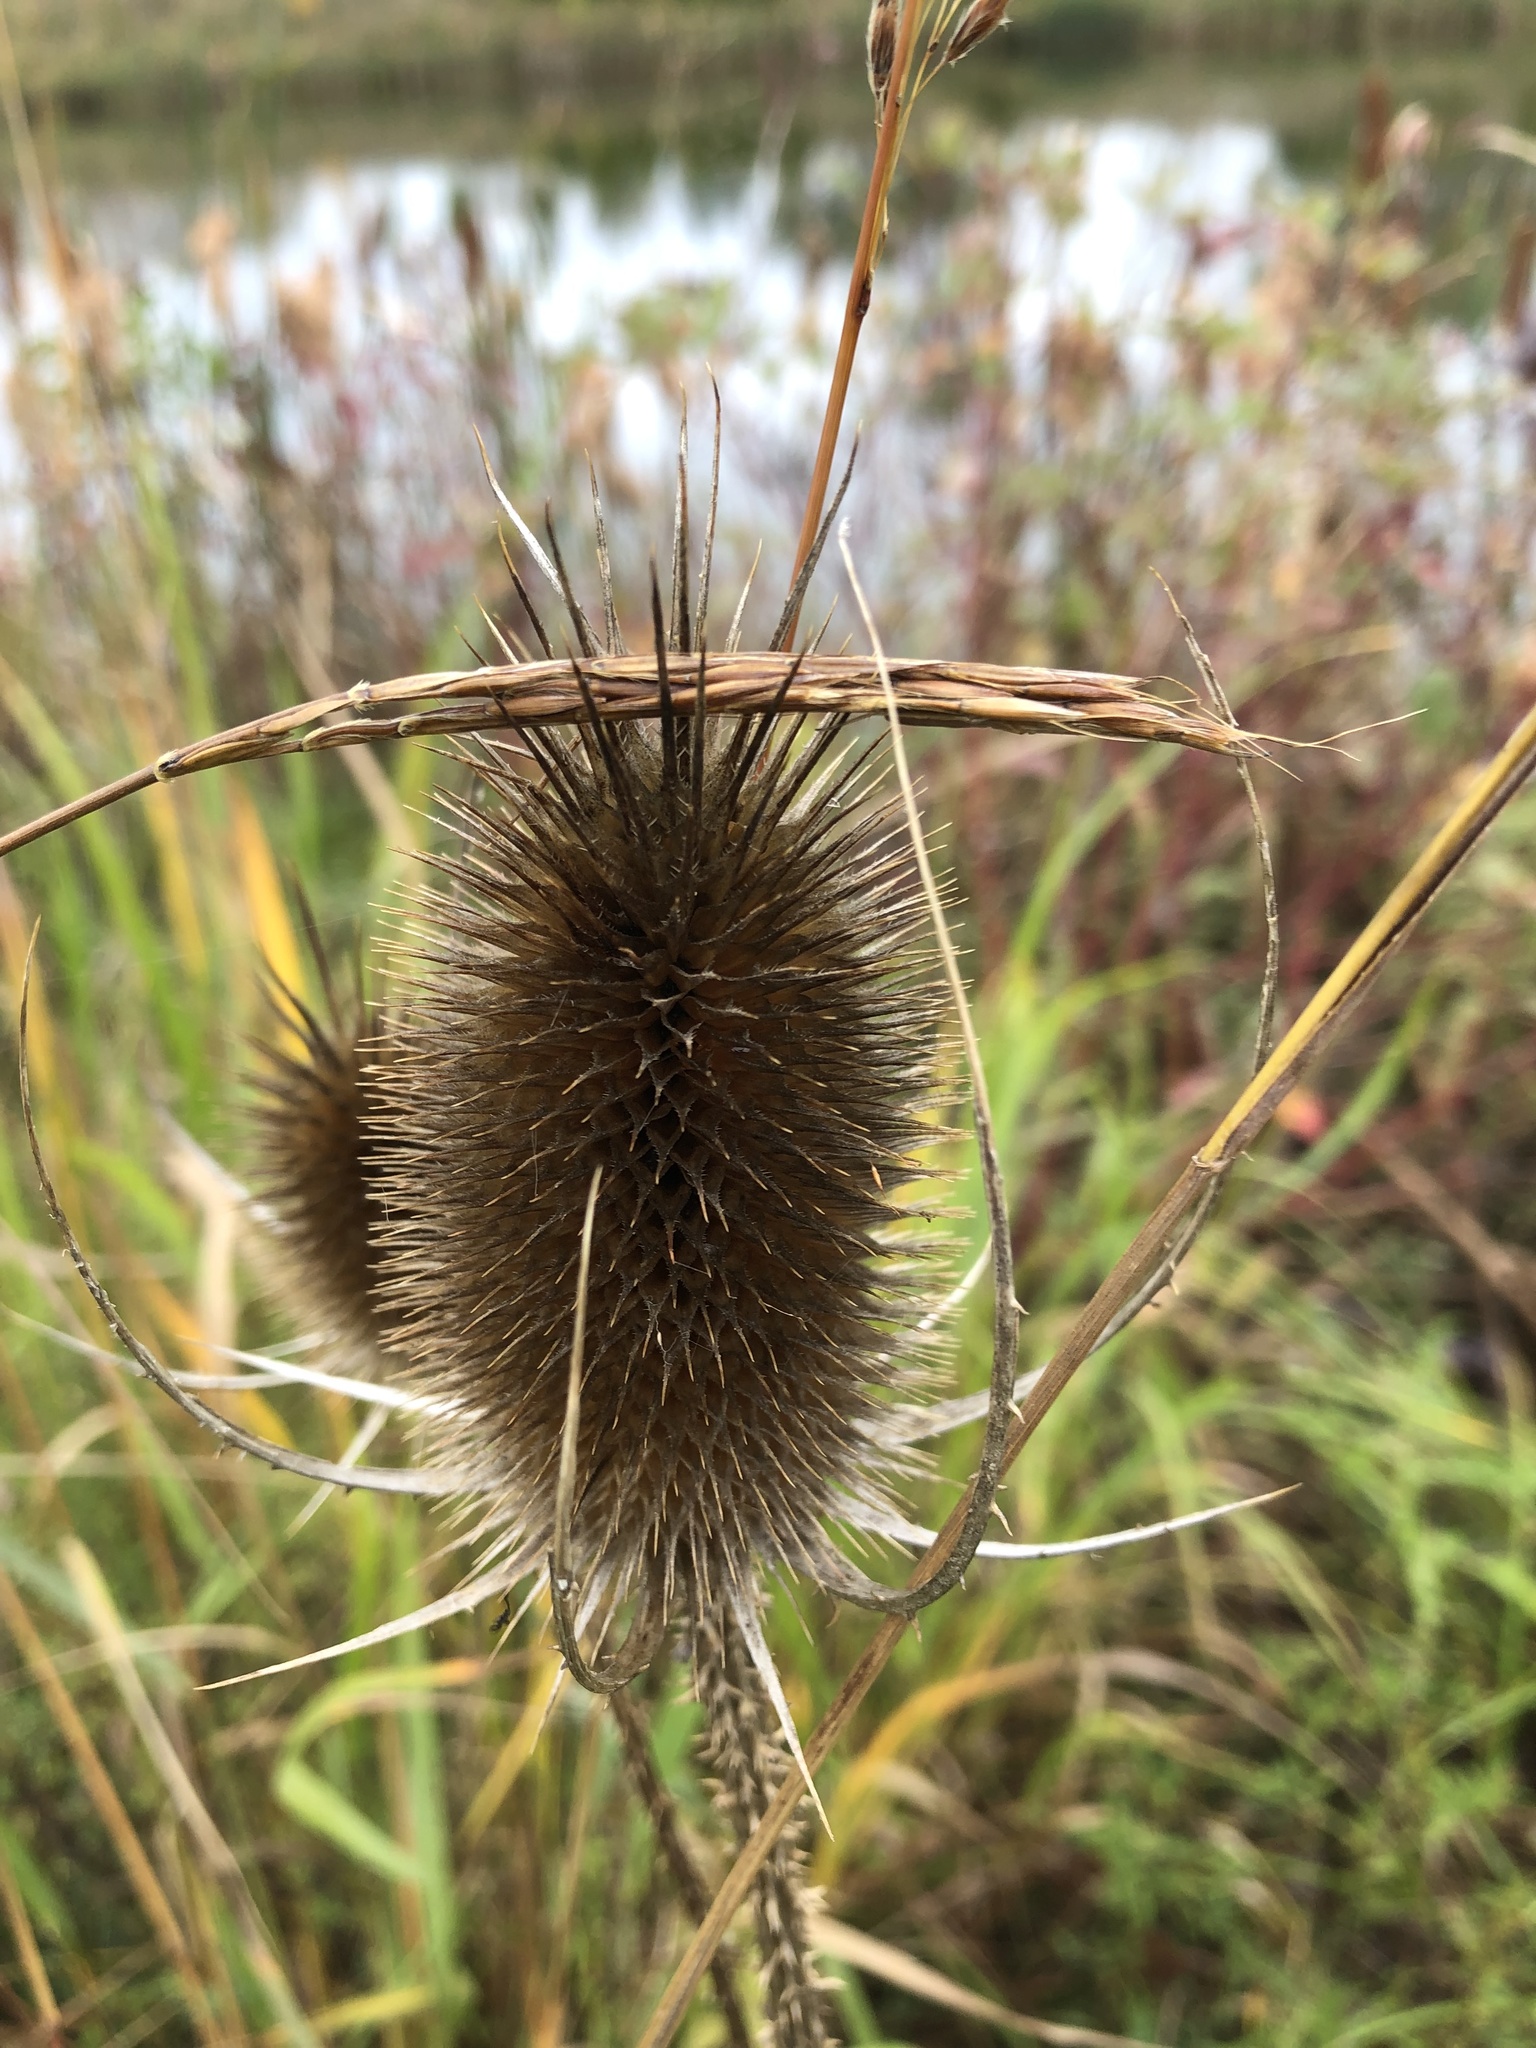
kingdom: Plantae
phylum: Tracheophyta
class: Magnoliopsida
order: Dipsacales
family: Caprifoliaceae
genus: Dipsacus
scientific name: Dipsacus fullonum
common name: Teasel
